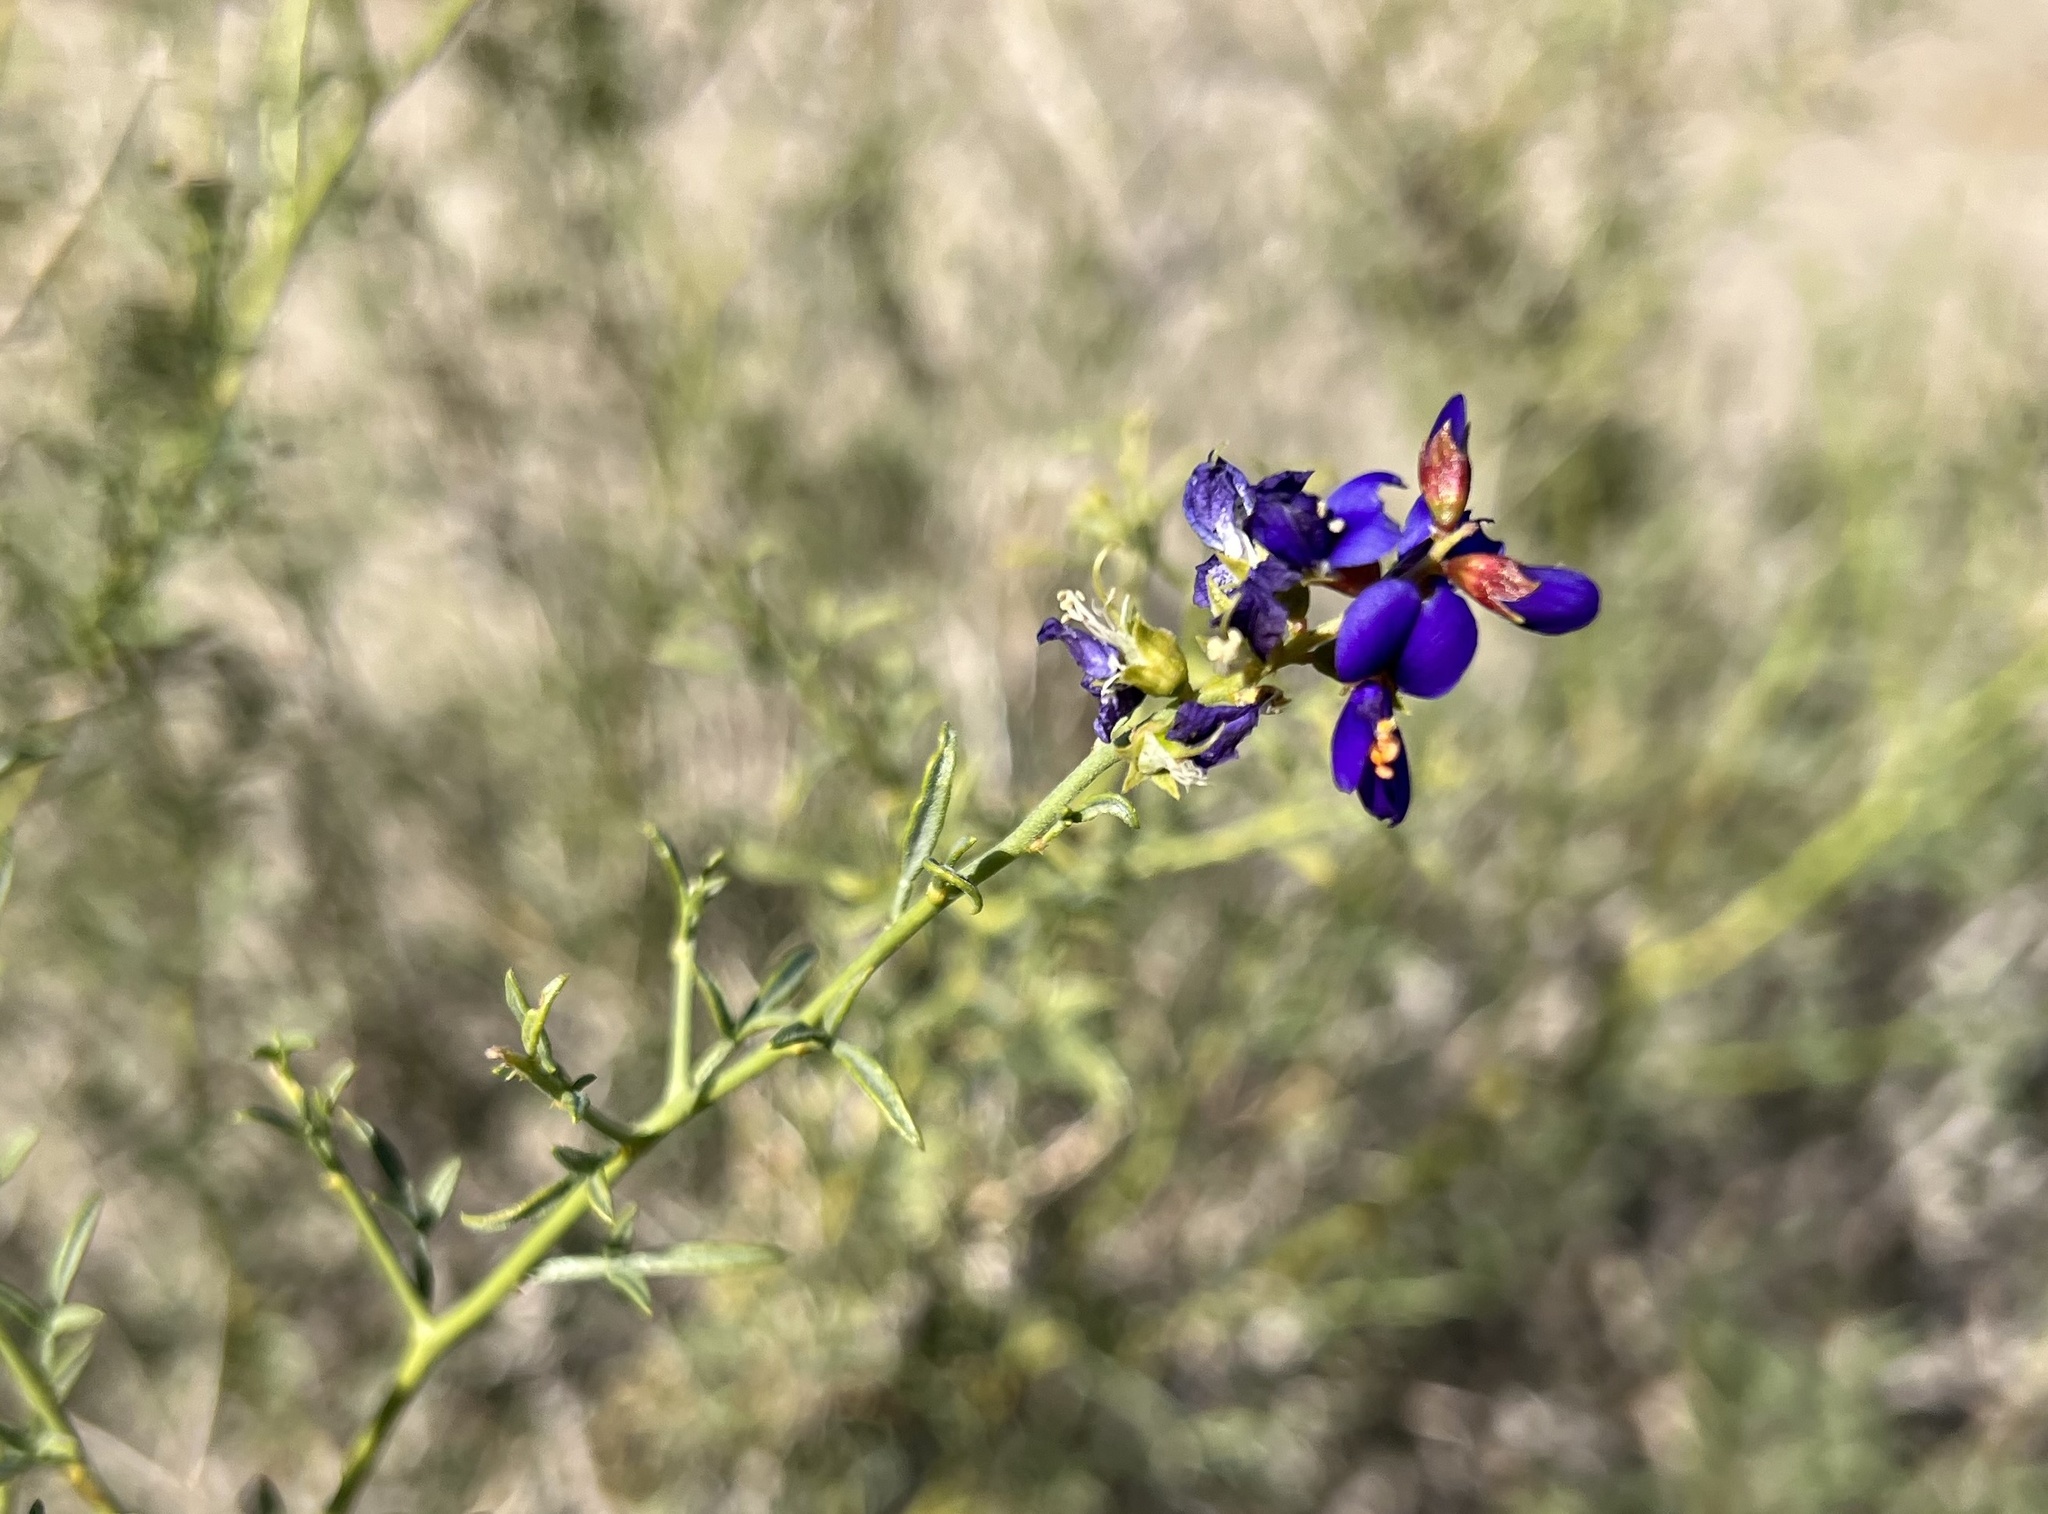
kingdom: Plantae
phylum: Tracheophyta
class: Magnoliopsida
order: Fabales
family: Fabaceae
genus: Psorothamnus
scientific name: Psorothamnus fremontii
